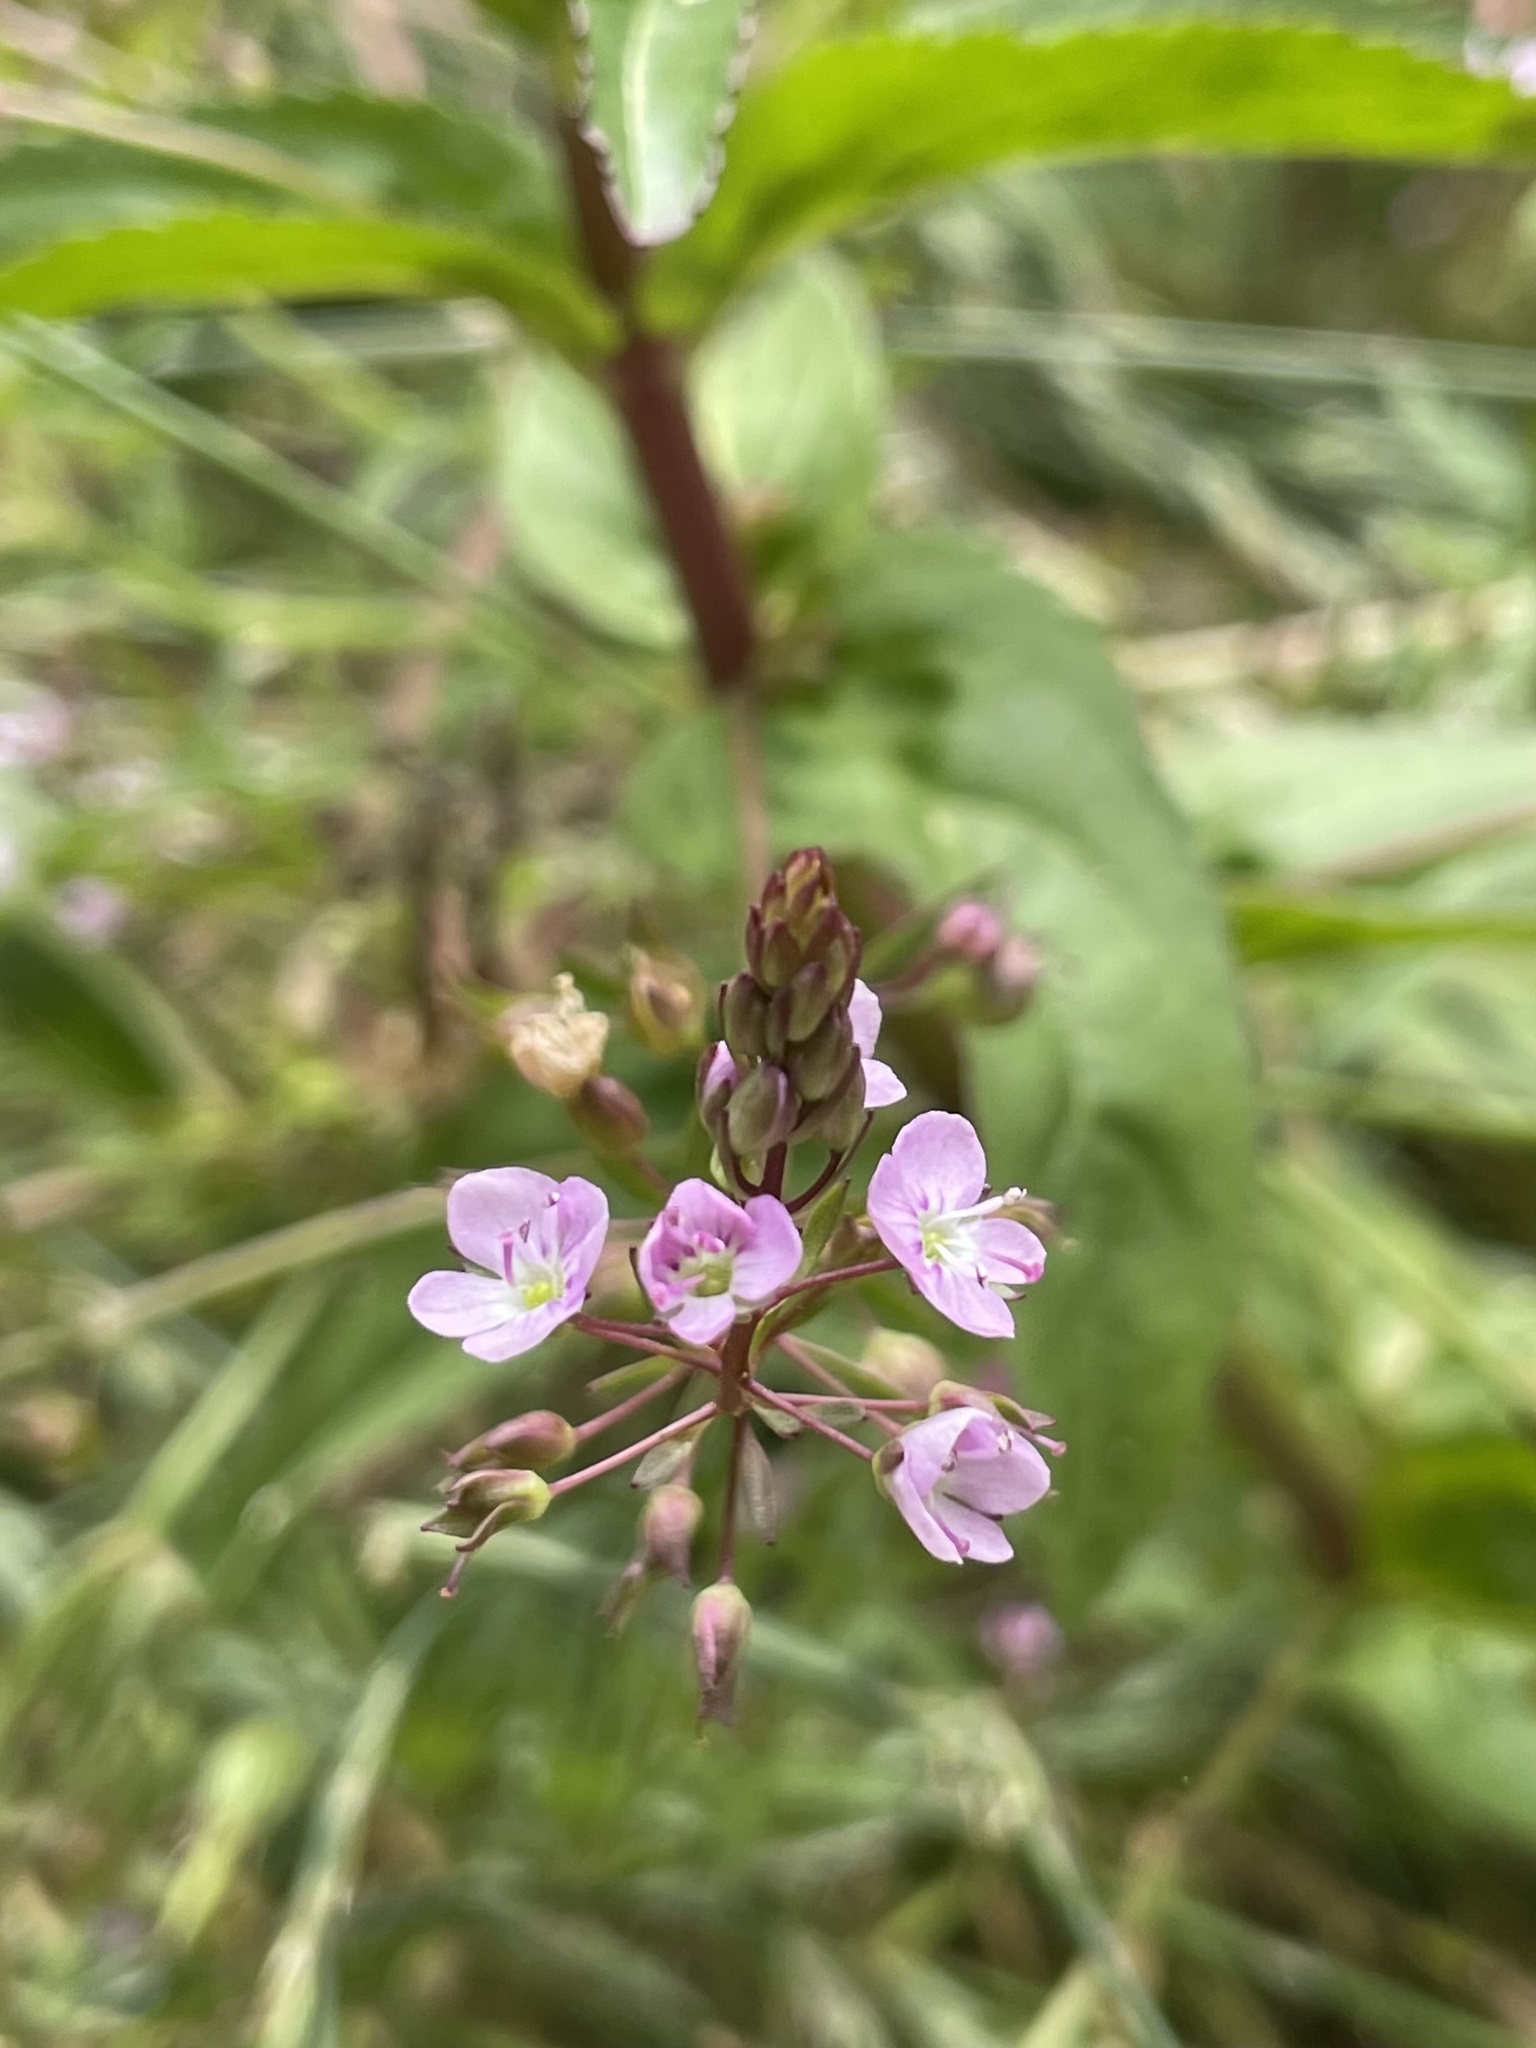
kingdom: Plantae
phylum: Tracheophyta
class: Magnoliopsida
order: Lamiales
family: Plantaginaceae
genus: Veronica
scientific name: Veronica americana
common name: American brooklime
